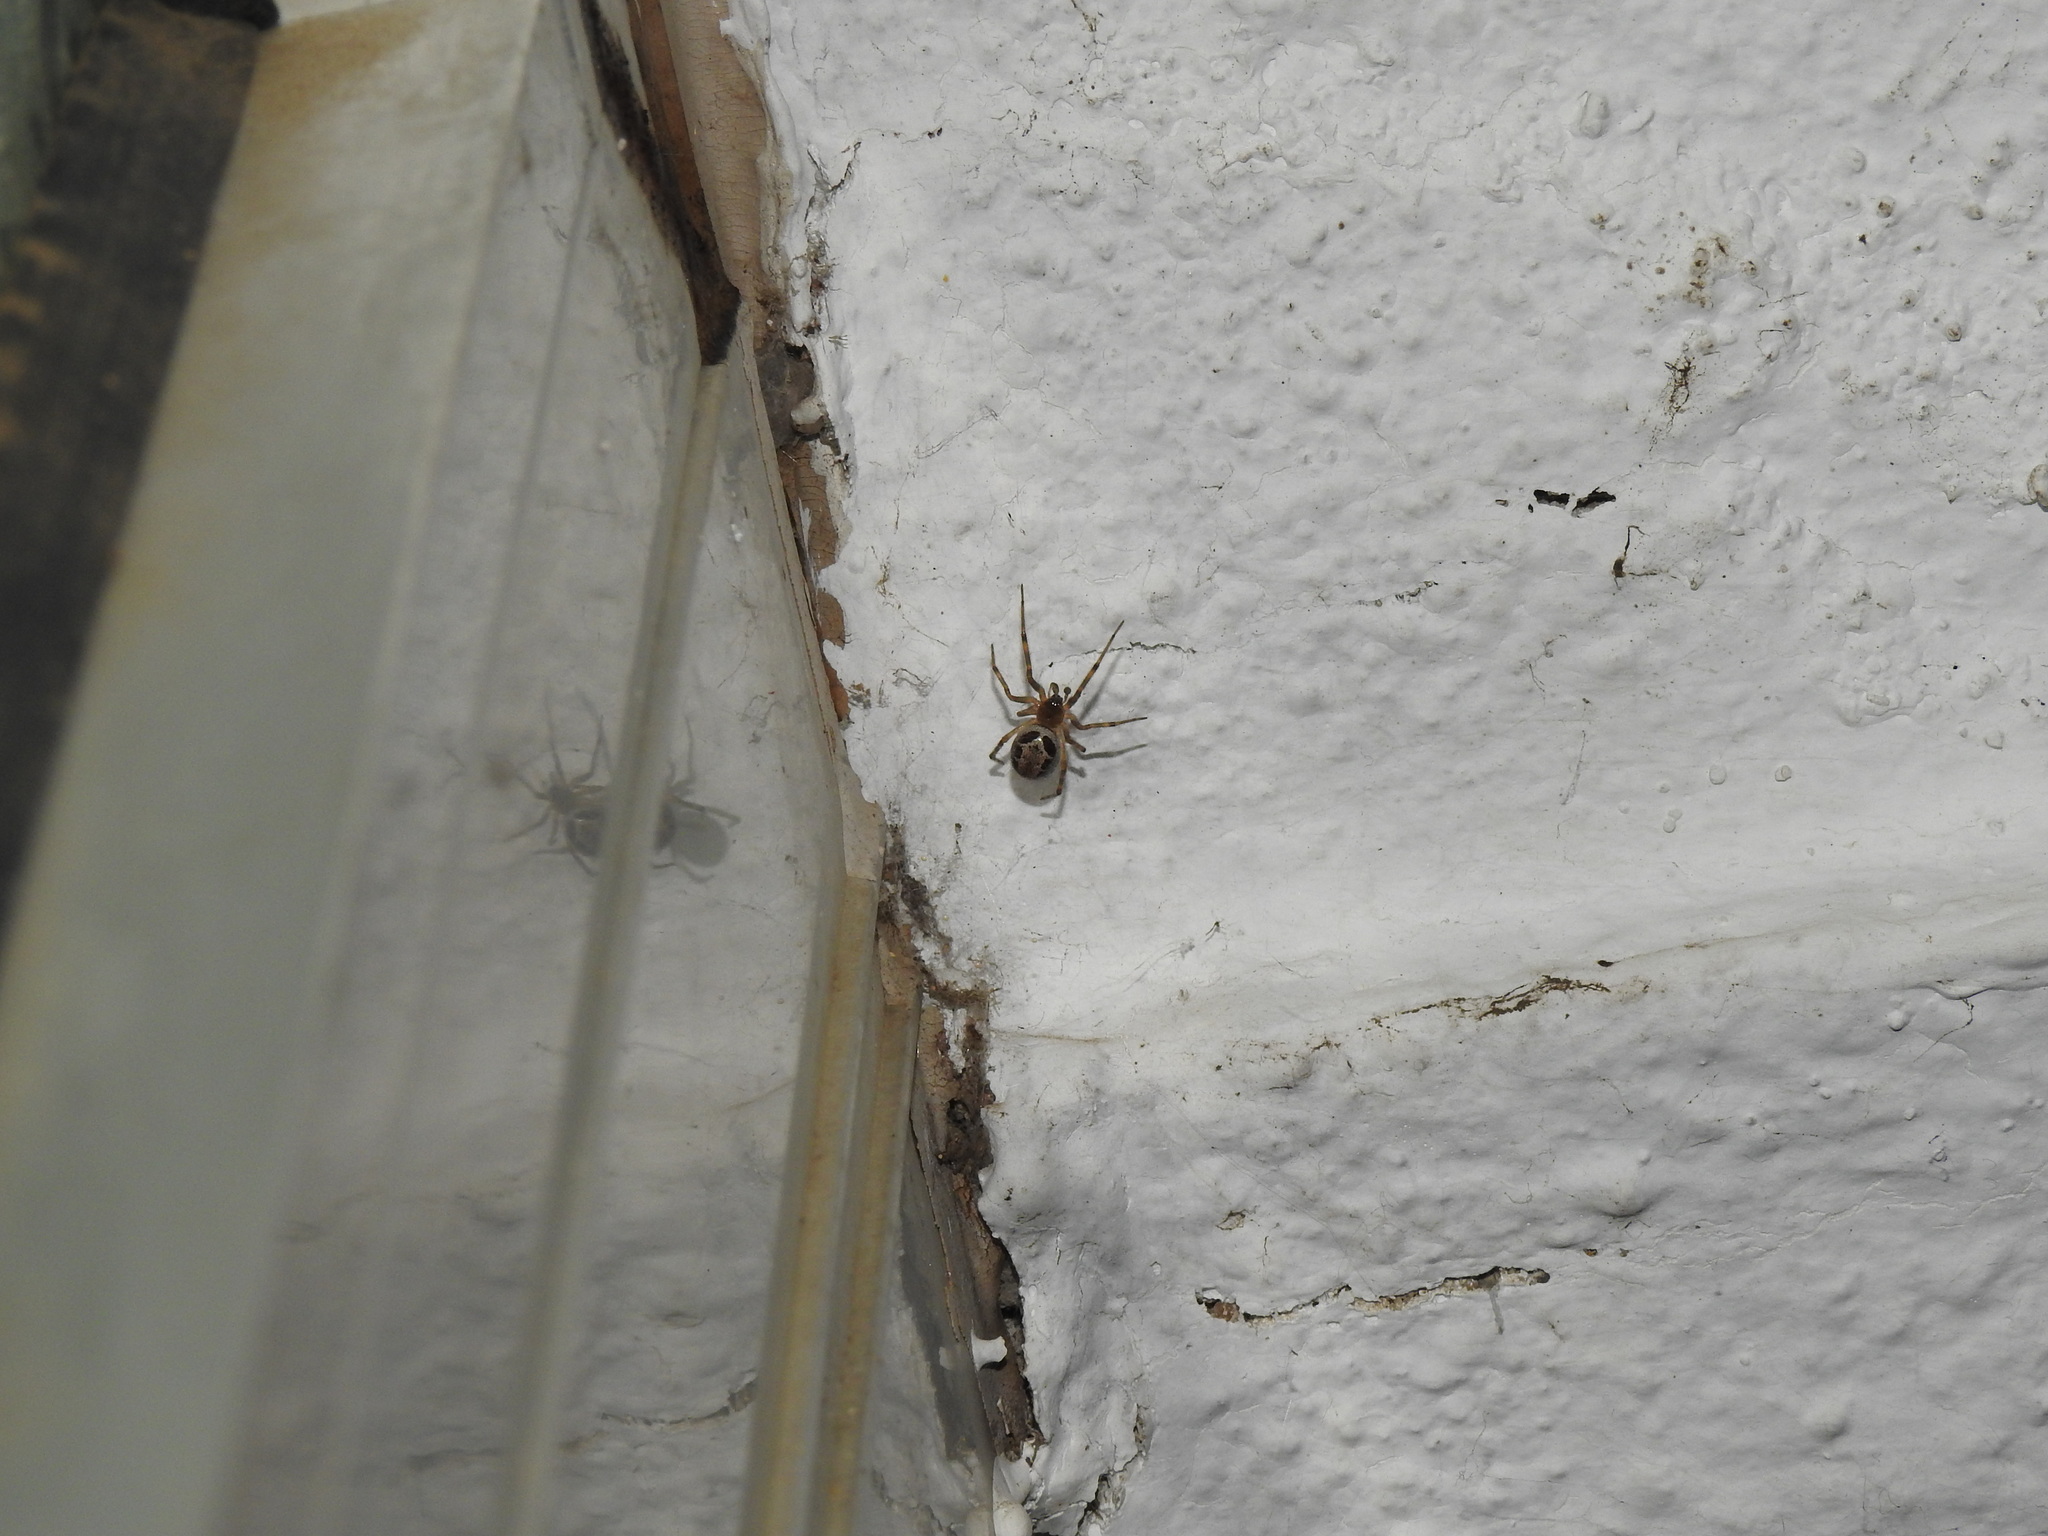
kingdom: Animalia
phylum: Arthropoda
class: Arachnida
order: Araneae
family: Theridiidae
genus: Steatoda
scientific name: Steatoda nobilis
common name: Cobweb weaver
